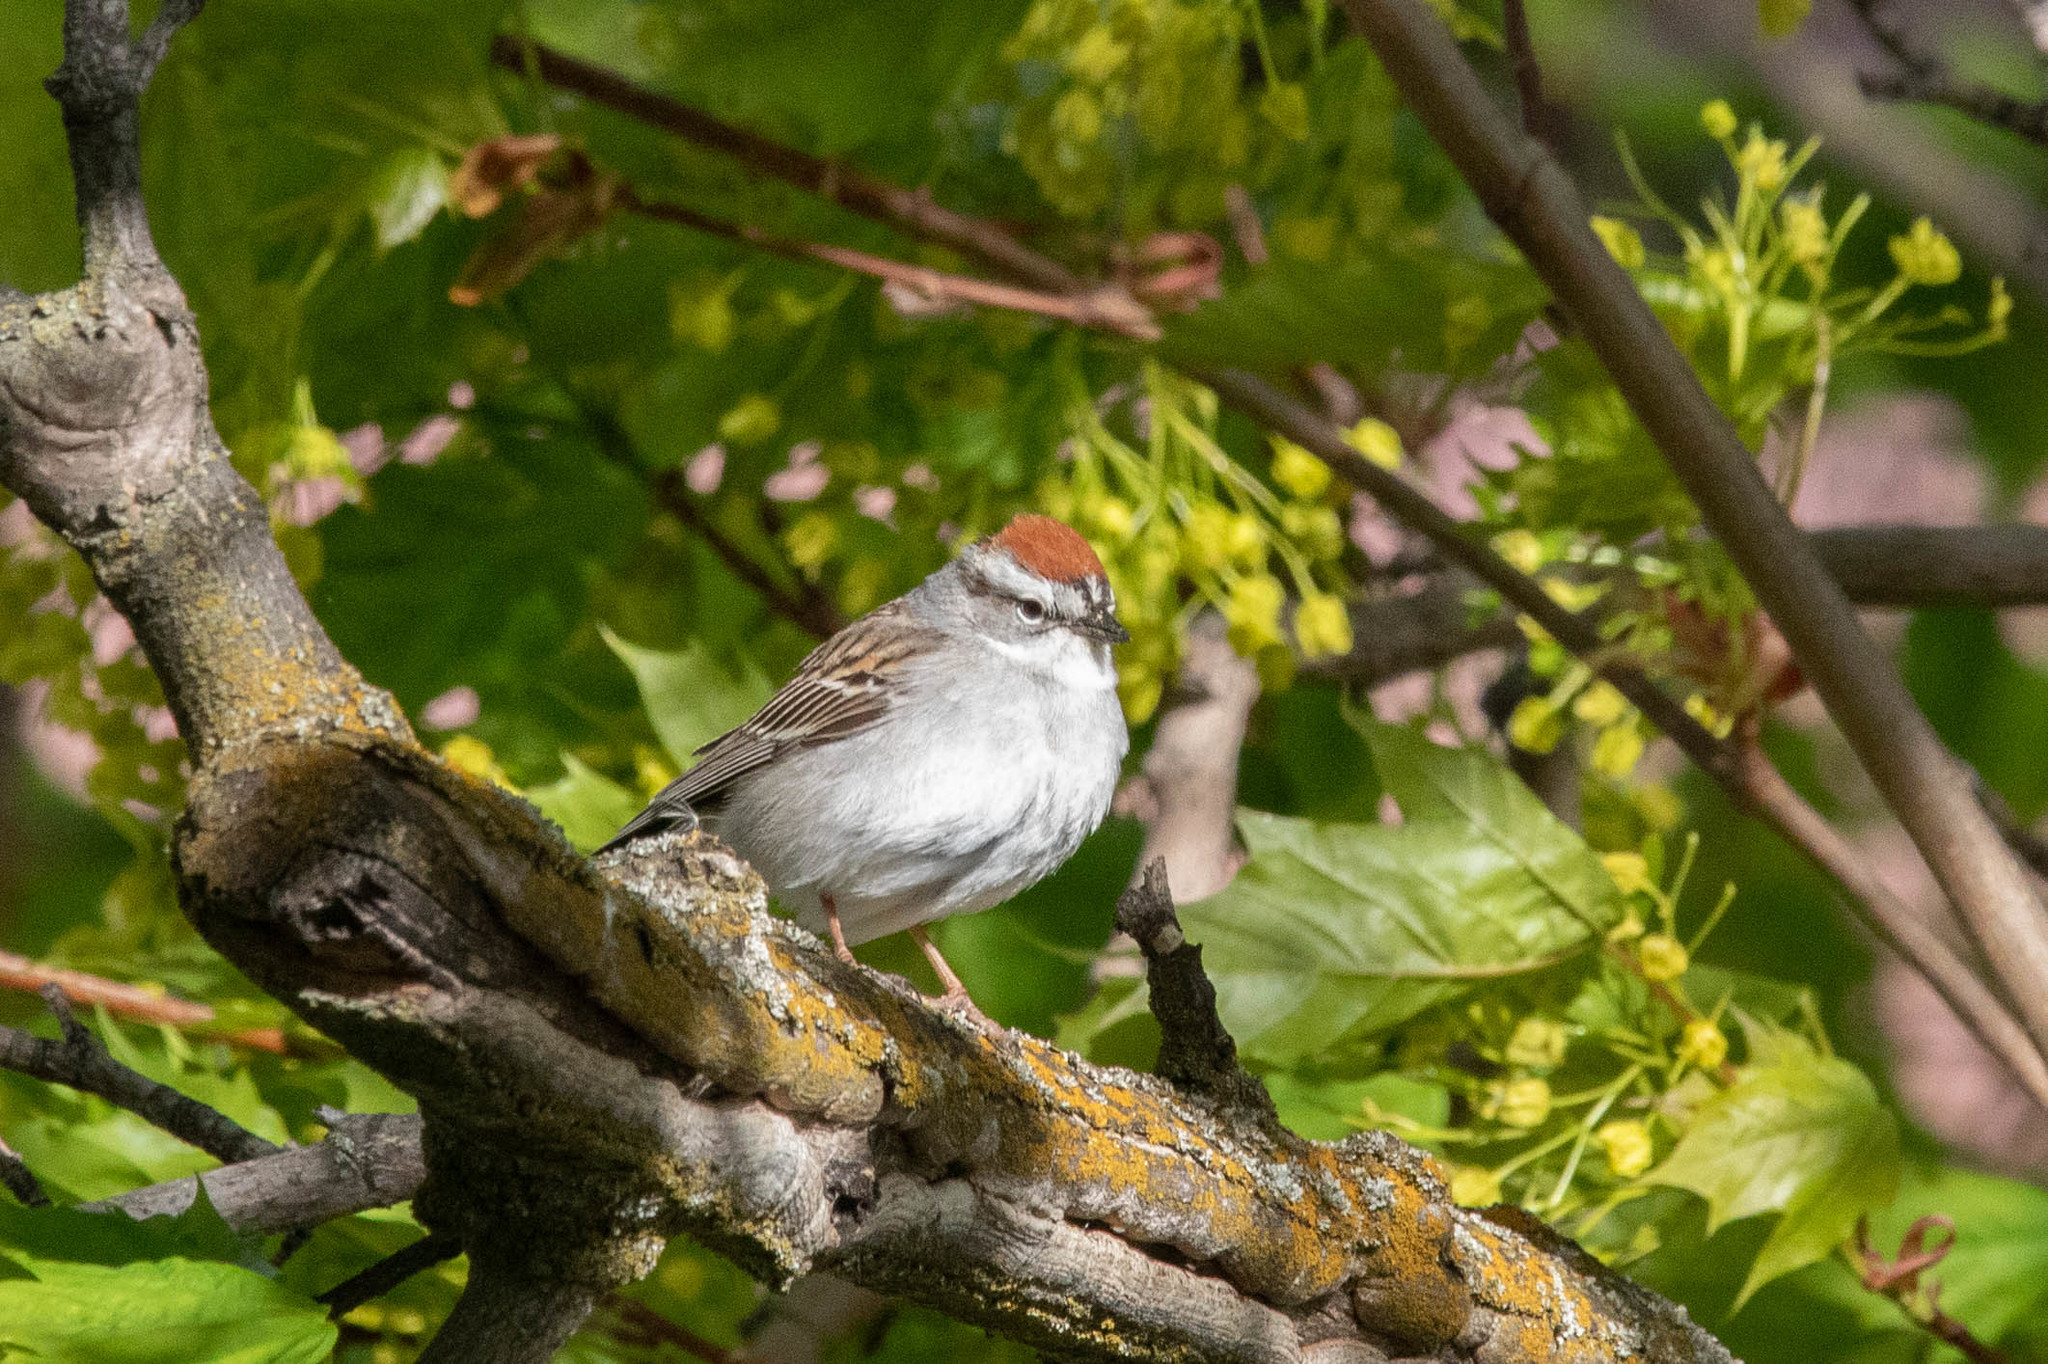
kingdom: Animalia
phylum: Chordata
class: Aves
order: Passeriformes
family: Passerellidae
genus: Spizella
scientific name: Spizella passerina
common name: Chipping sparrow
